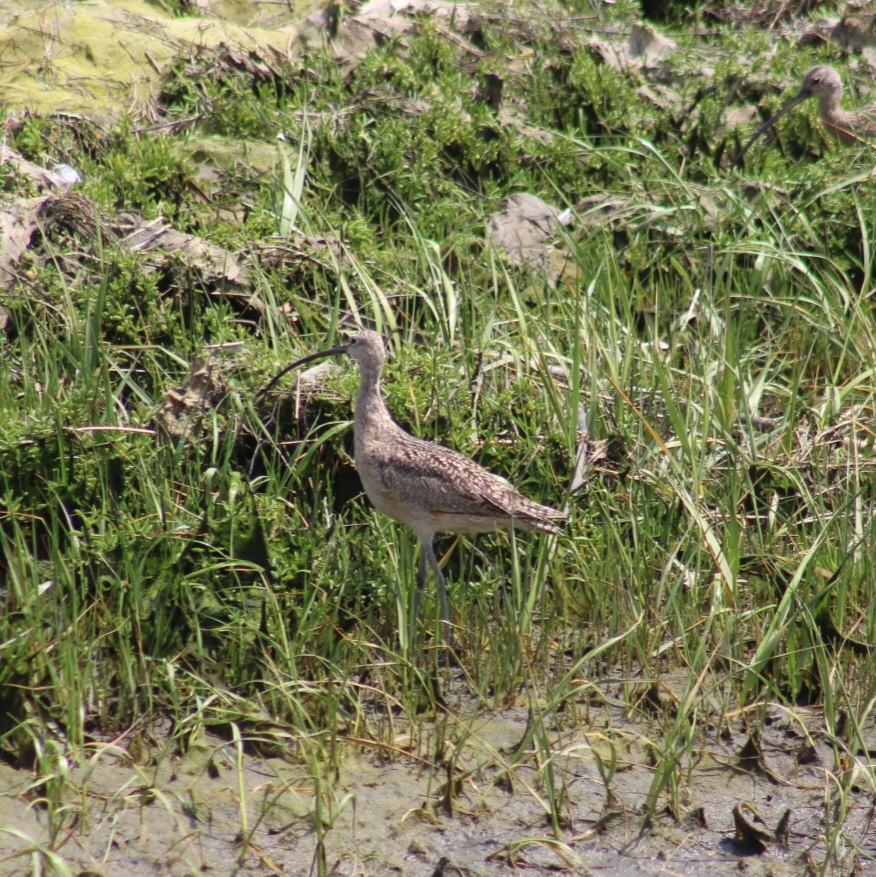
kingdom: Animalia
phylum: Chordata
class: Aves
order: Charadriiformes
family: Scolopacidae
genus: Numenius
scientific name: Numenius americanus
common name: Long-billed curlew
